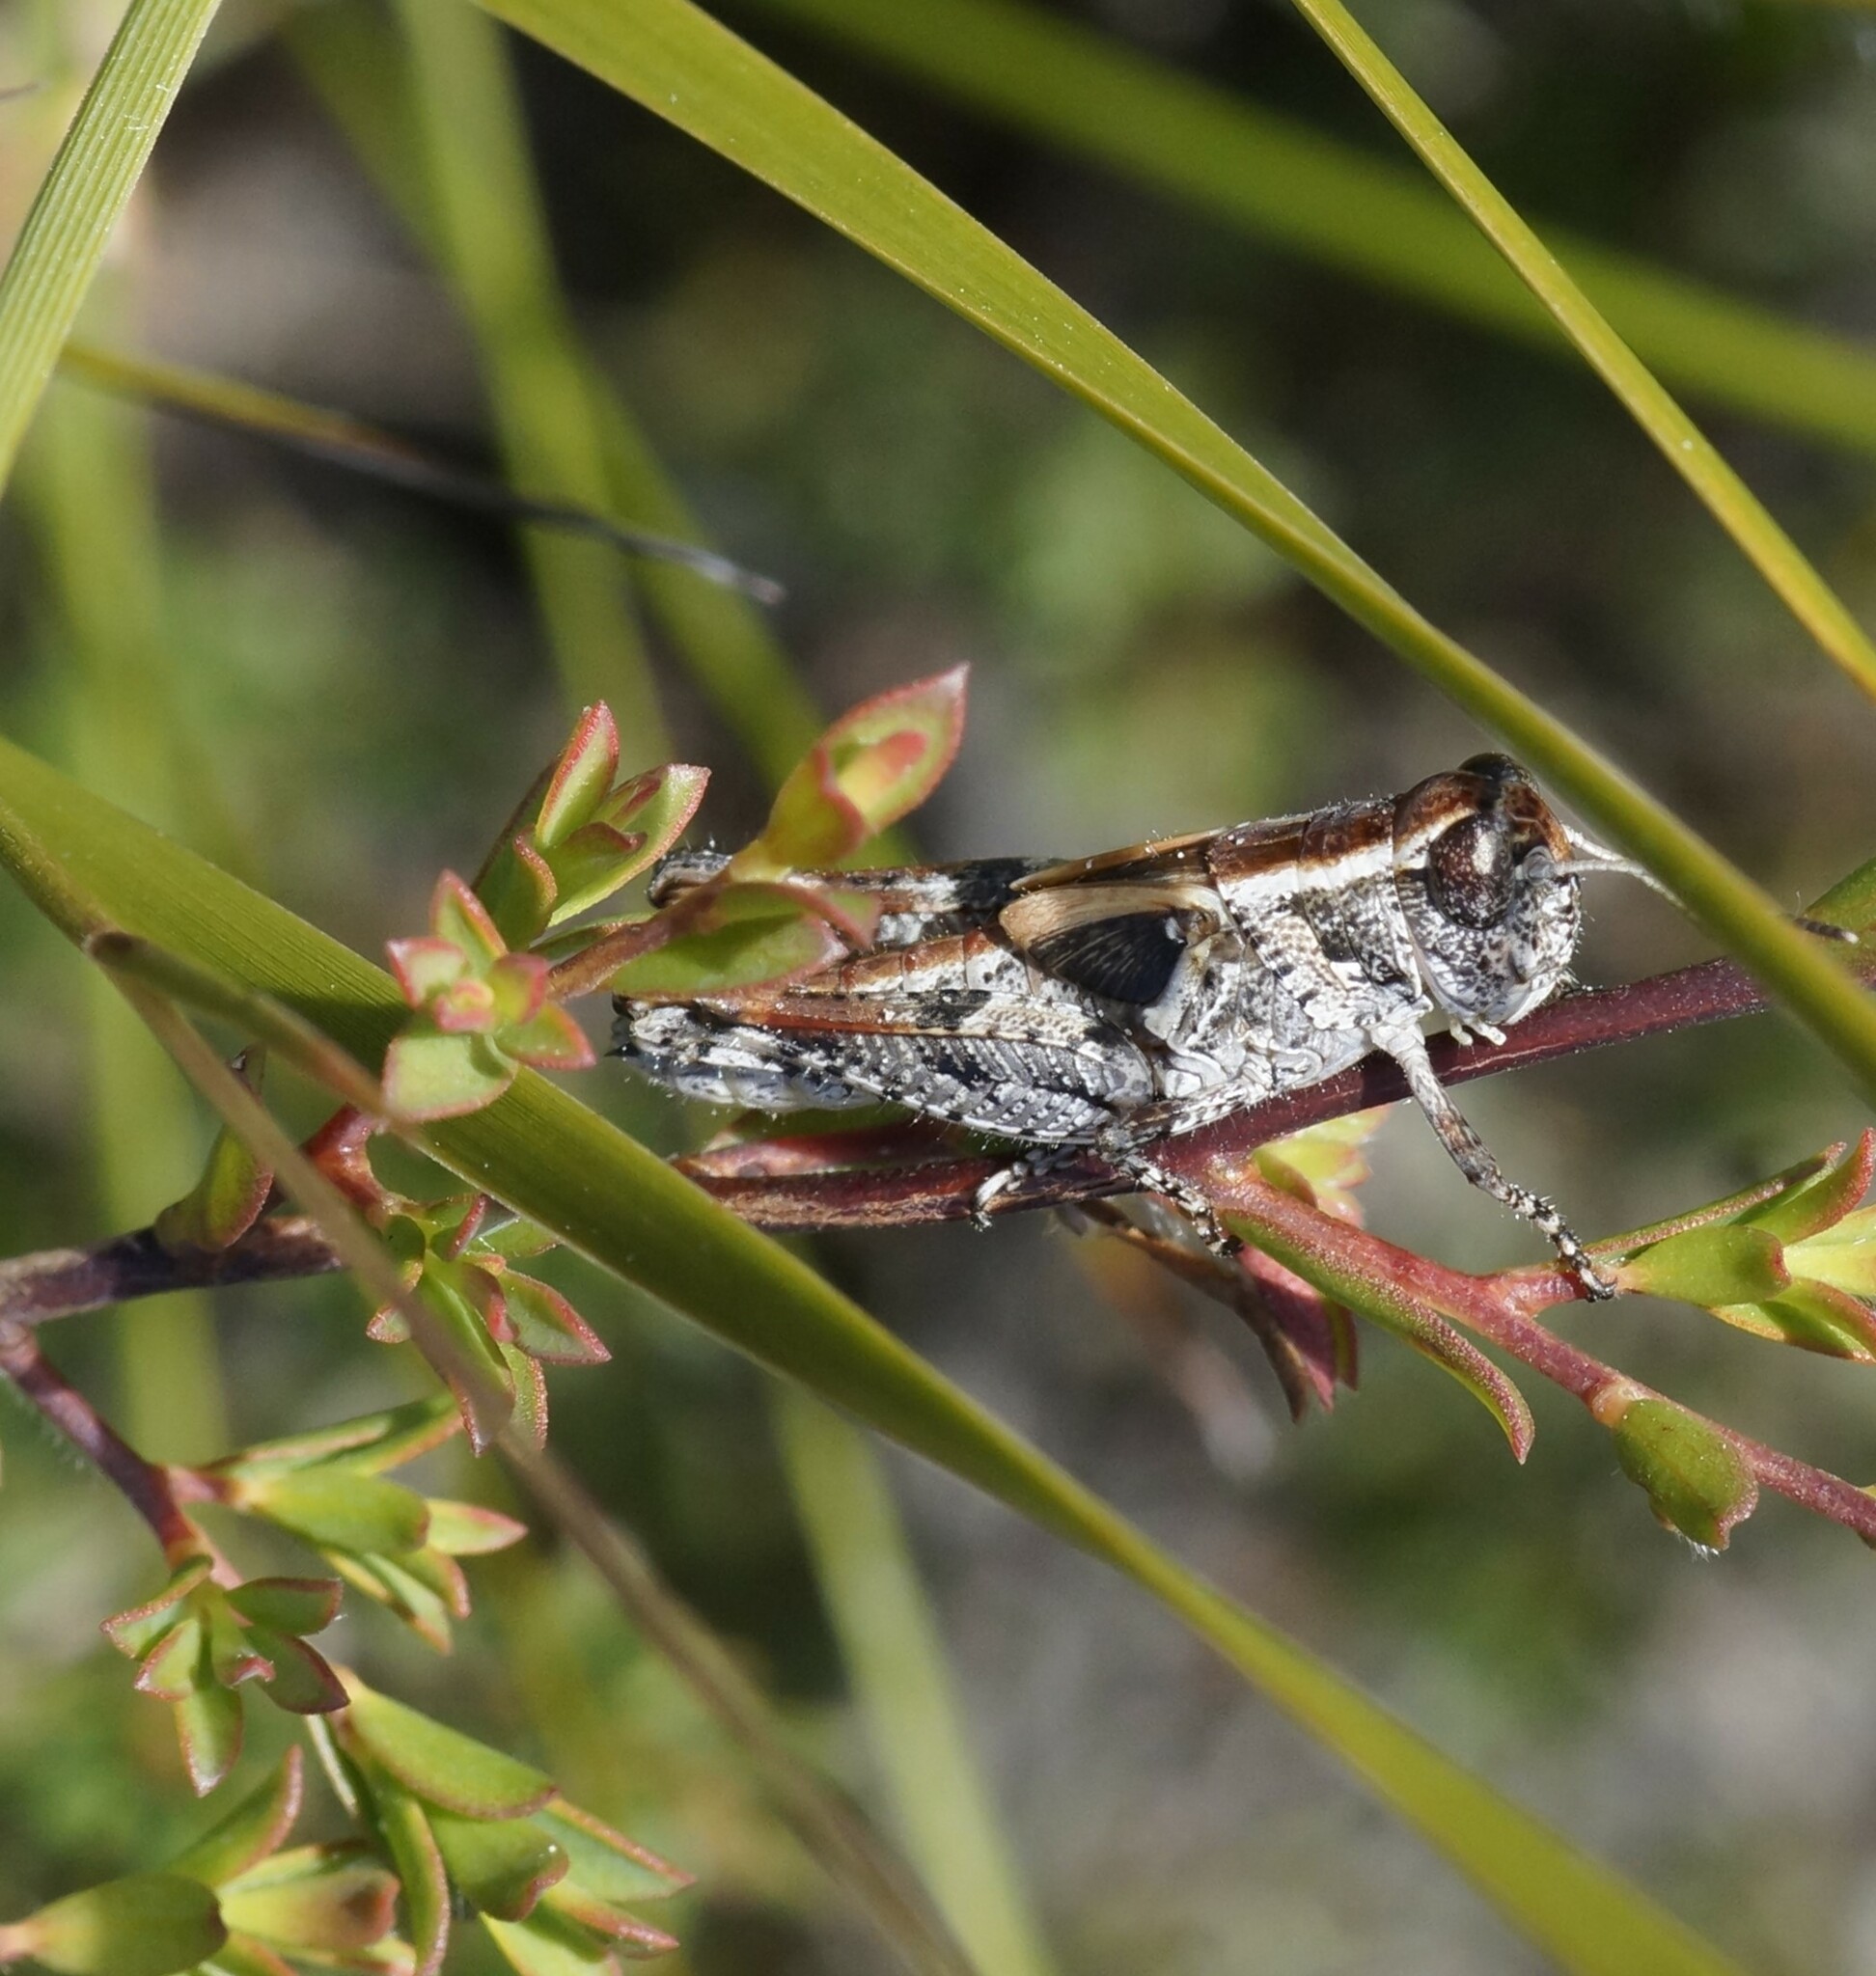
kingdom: Animalia
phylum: Arthropoda
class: Insecta
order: Orthoptera
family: Acrididae
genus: Exarna
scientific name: Exarna includens
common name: Red-legged exarna
